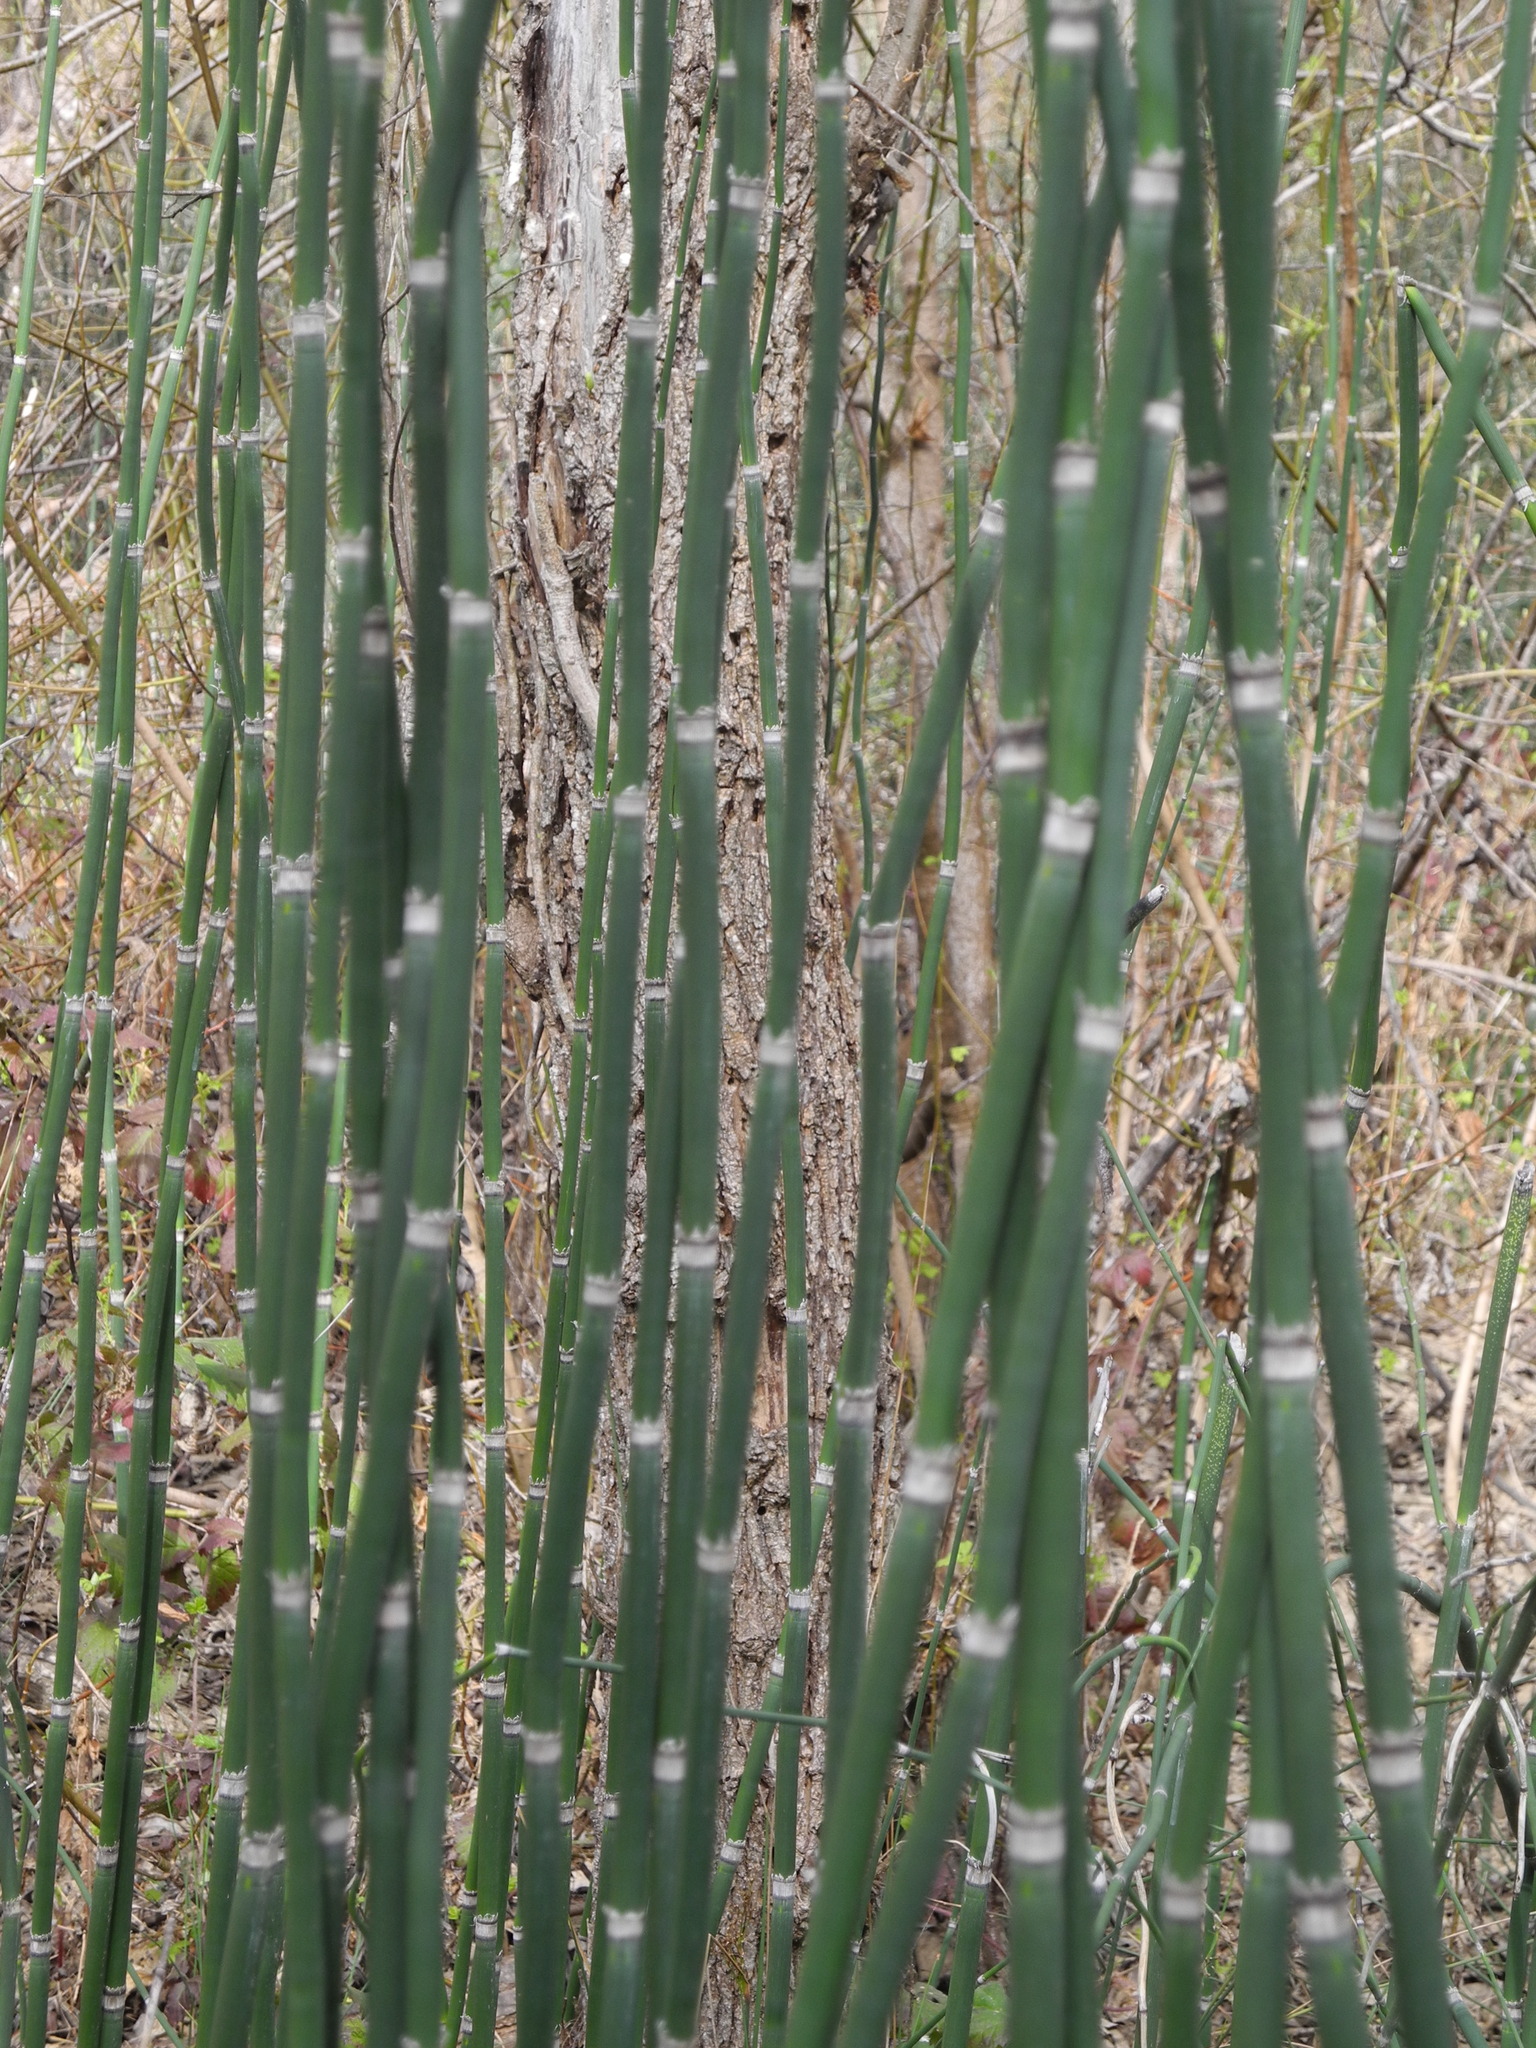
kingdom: Plantae
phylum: Tracheophyta
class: Polypodiopsida
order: Equisetales
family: Equisetaceae
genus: Equisetum
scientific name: Equisetum praealtum
